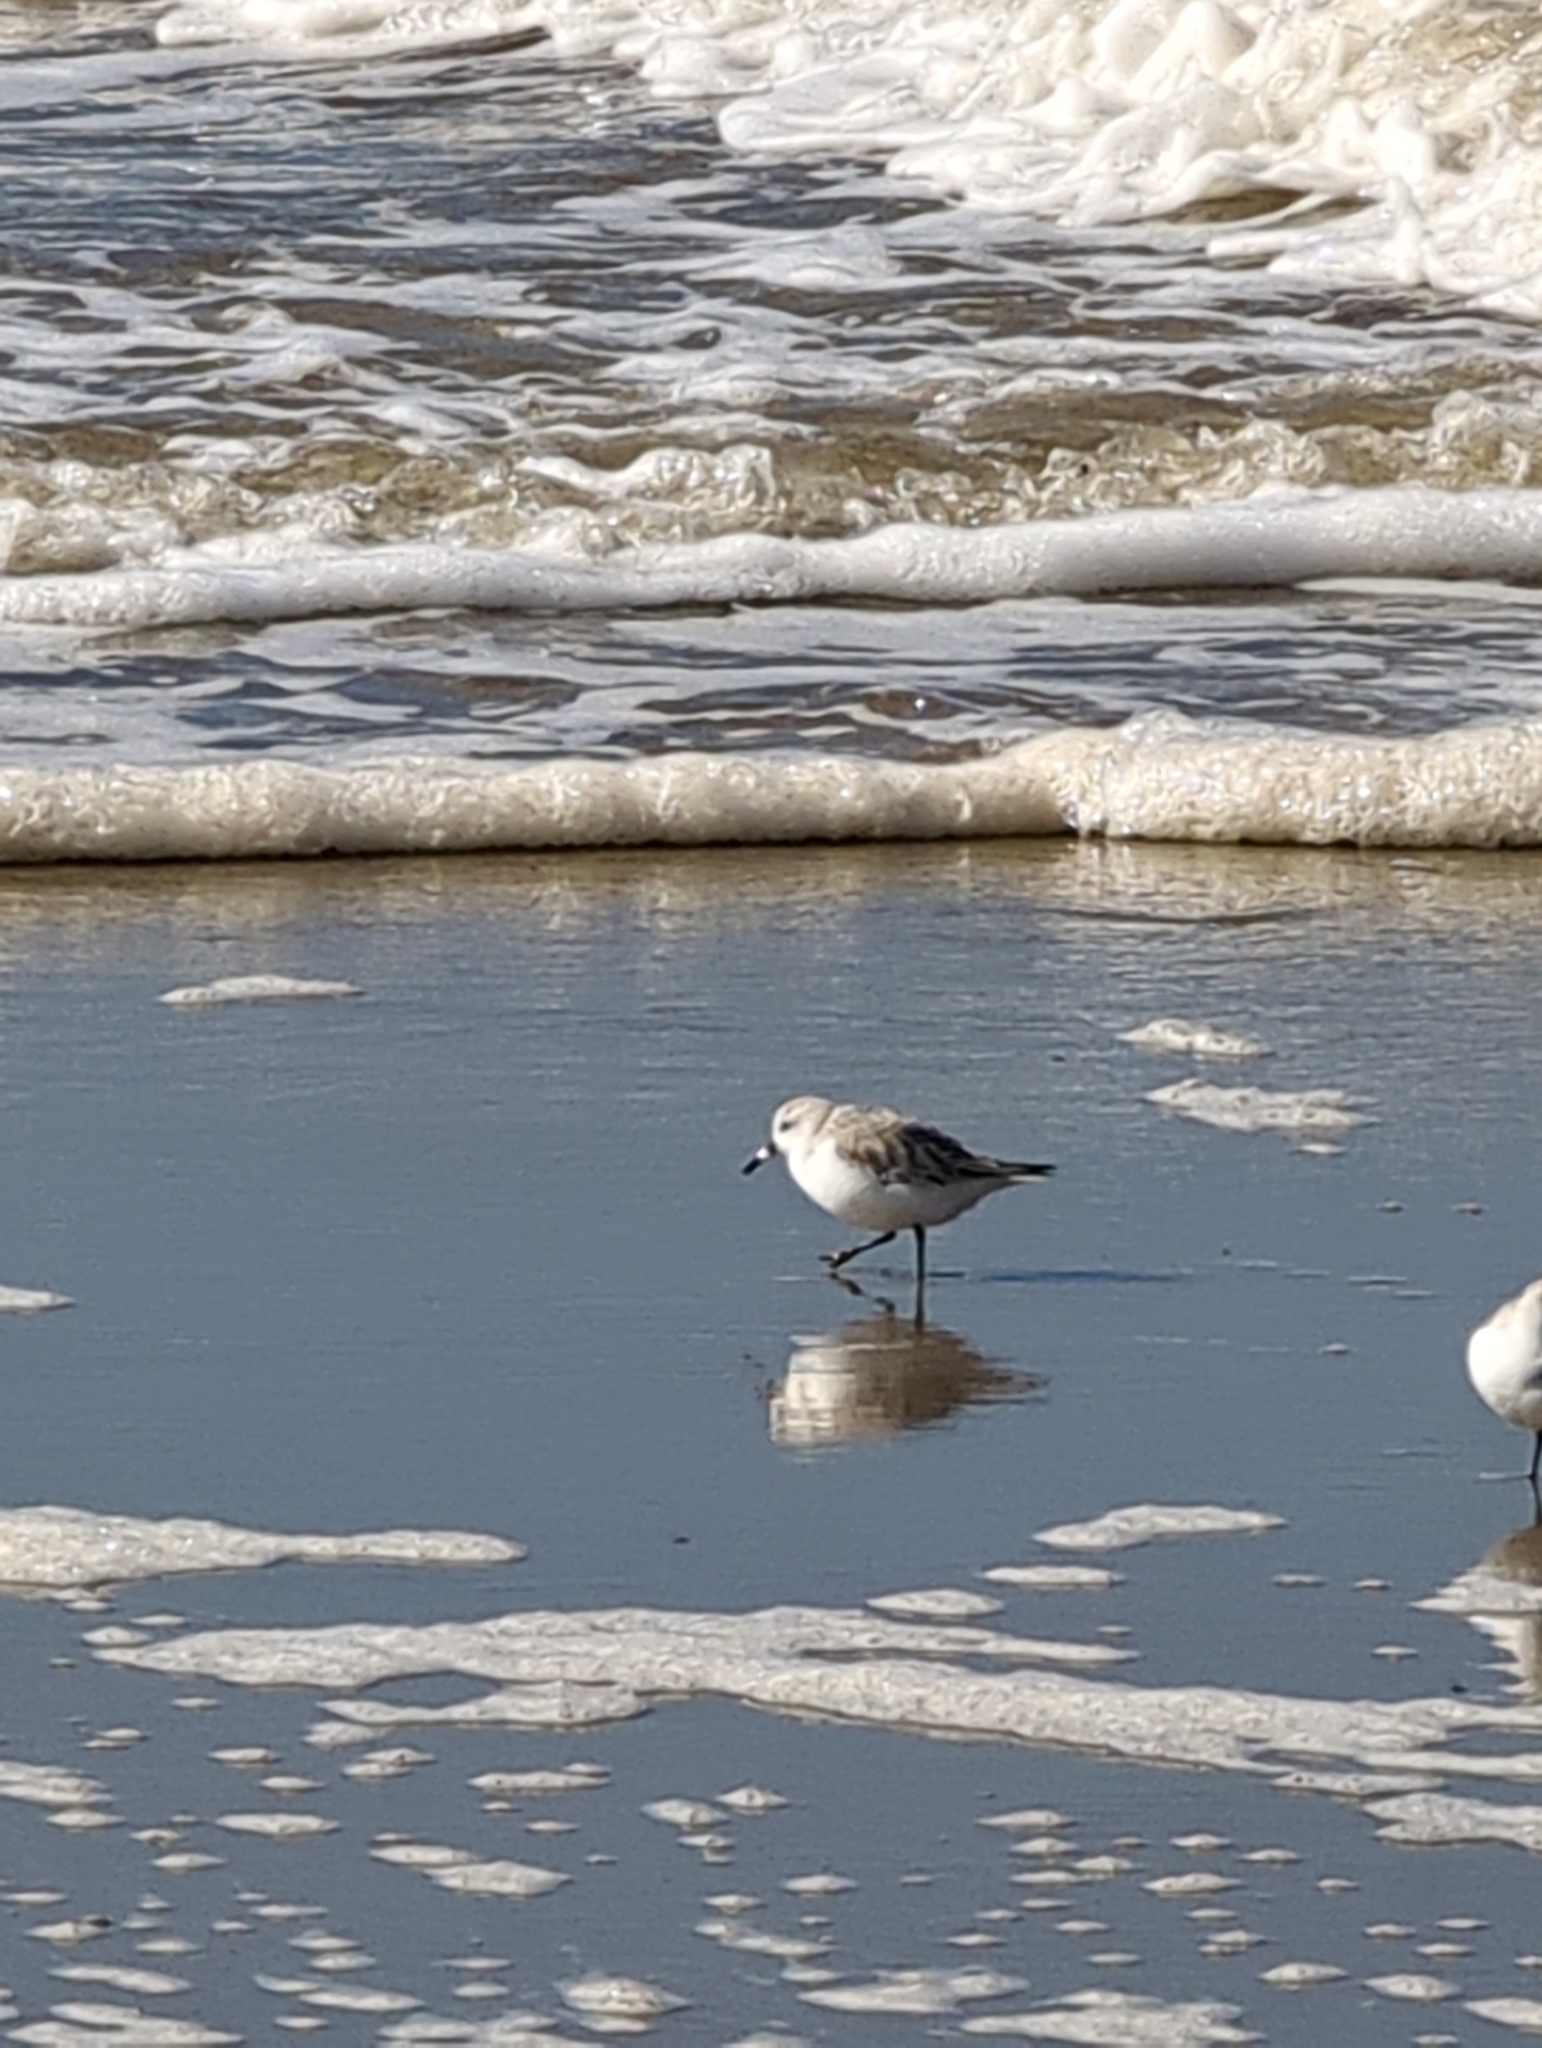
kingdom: Animalia
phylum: Chordata
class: Aves
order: Charadriiformes
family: Scolopacidae
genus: Calidris
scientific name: Calidris alba
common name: Sanderling
